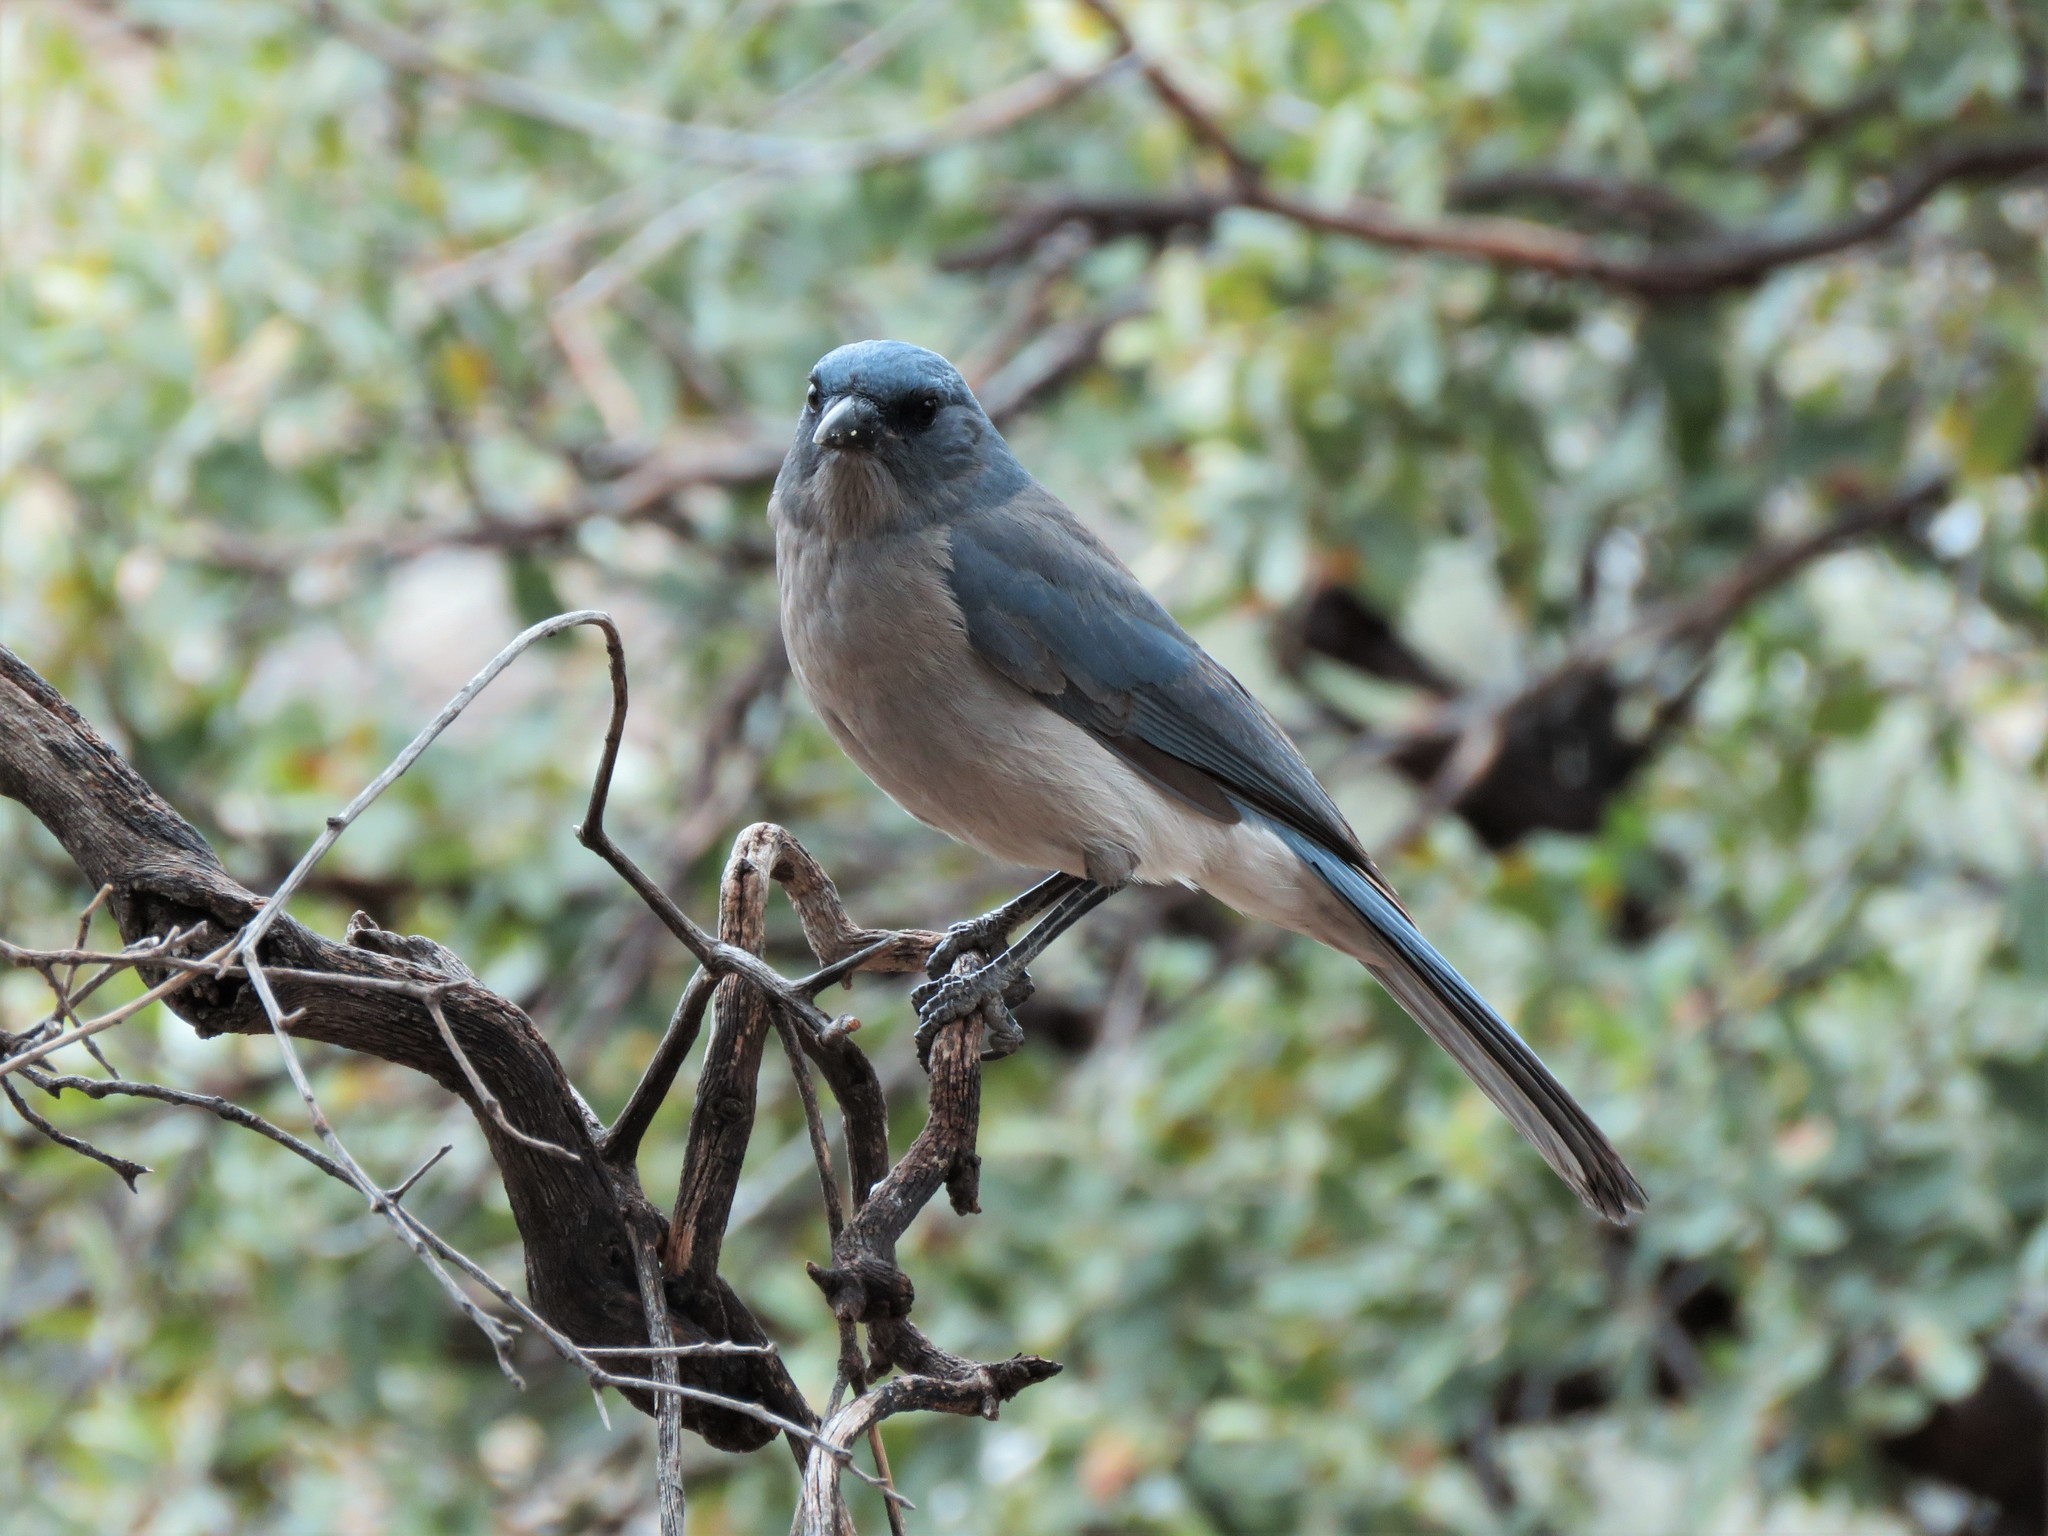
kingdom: Animalia
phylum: Chordata
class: Aves
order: Passeriformes
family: Corvidae
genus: Aphelocoma
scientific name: Aphelocoma wollweberi
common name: Mexican jay
